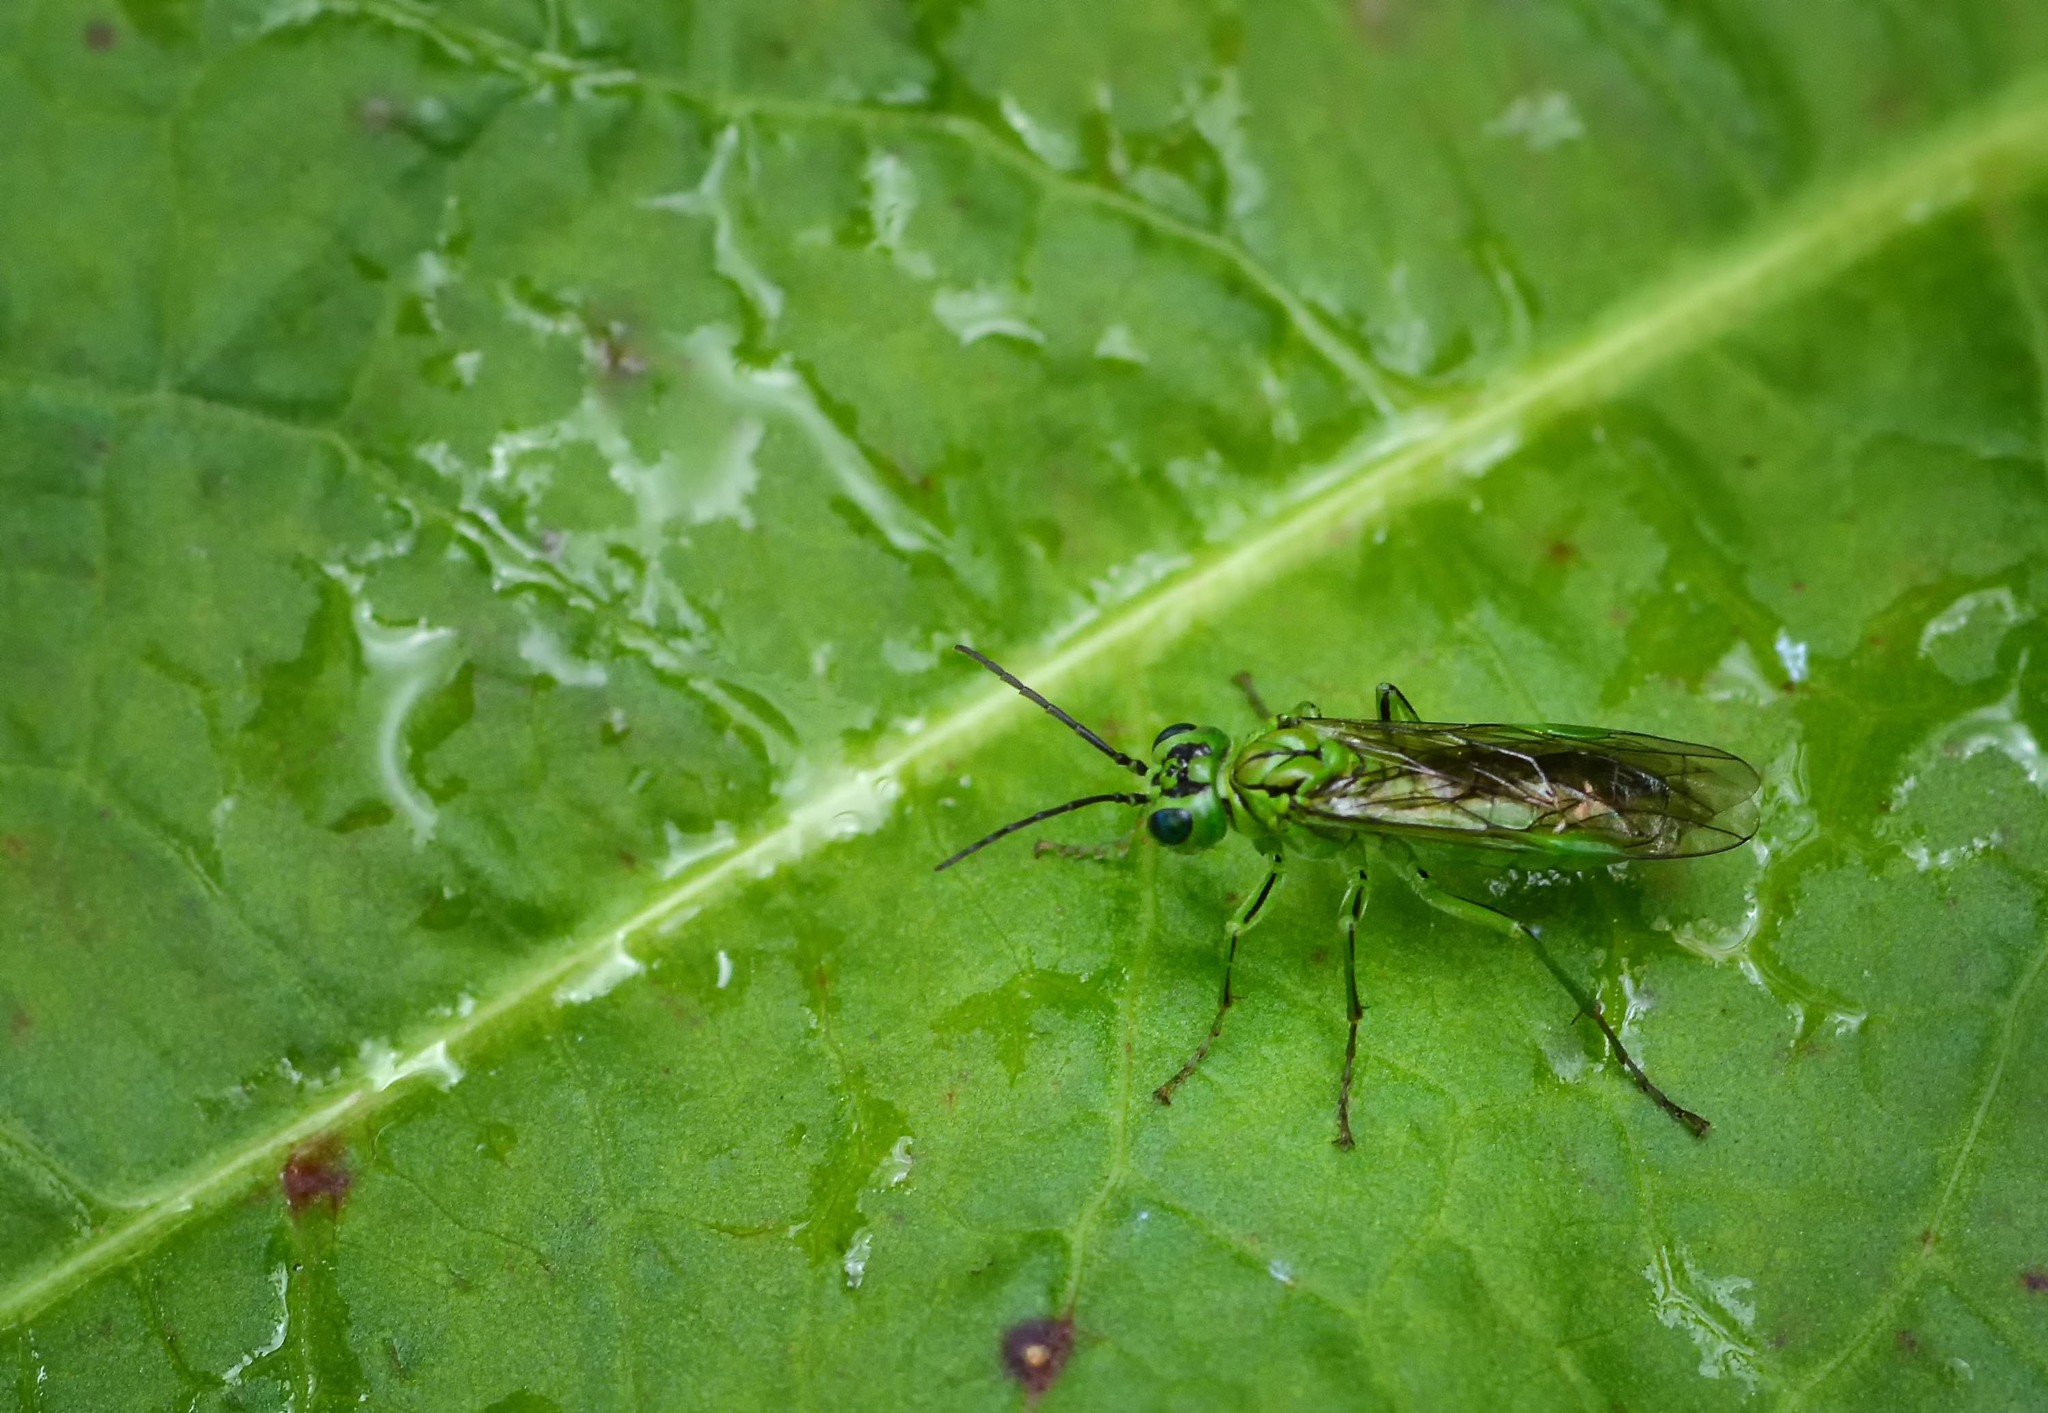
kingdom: Animalia
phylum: Arthropoda
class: Insecta
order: Hymenoptera
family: Tenthredinidae
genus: Tenthredo
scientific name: Tenthredo olivacea
